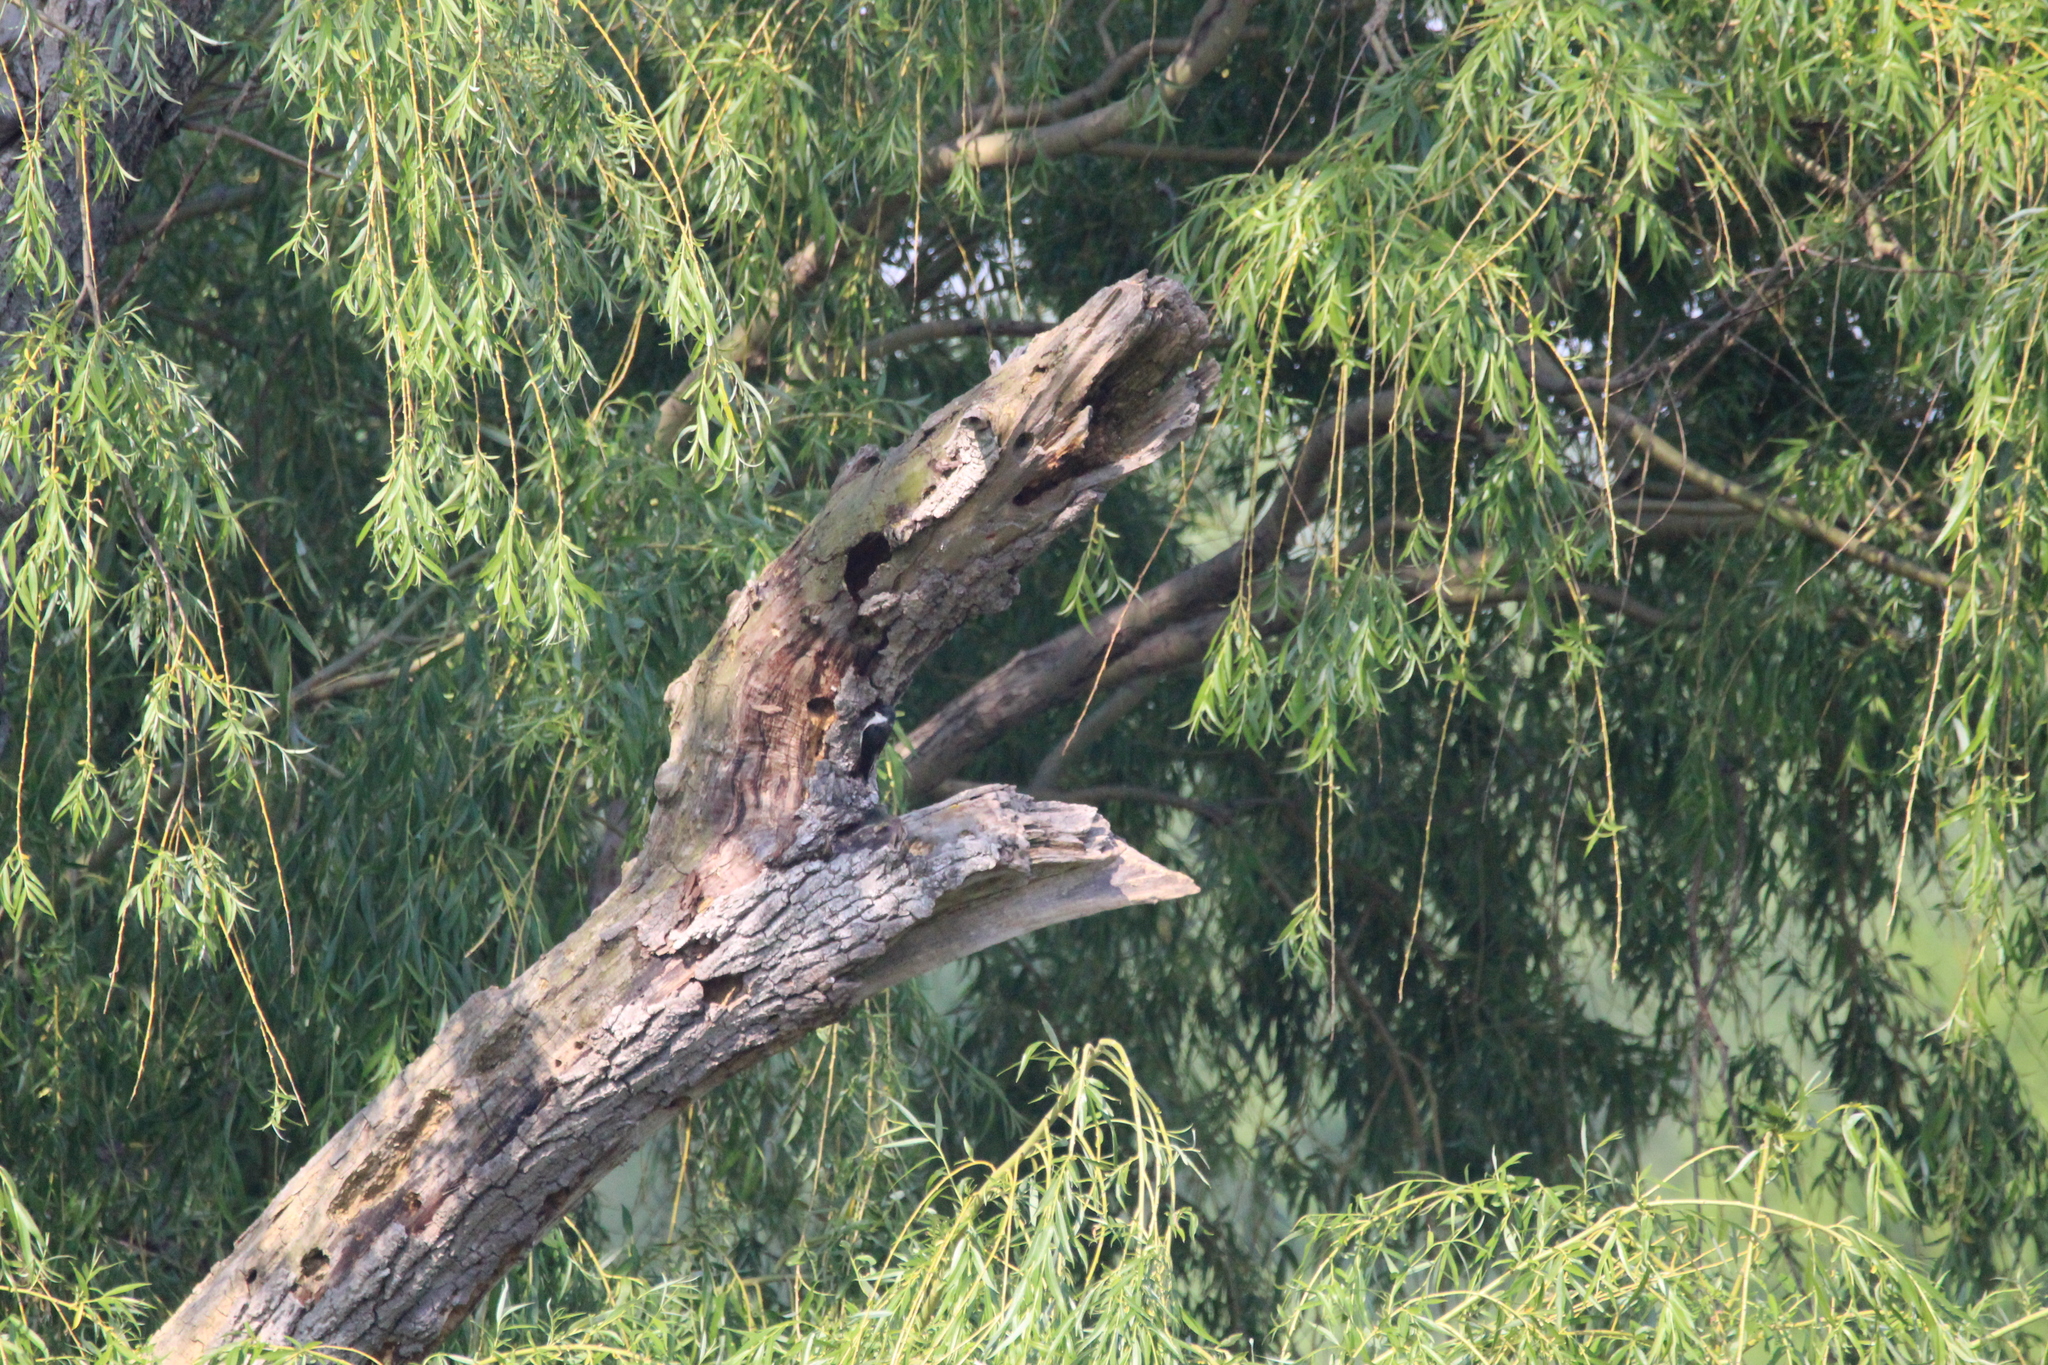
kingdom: Animalia
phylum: Chordata
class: Aves
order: Passeriformes
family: Hirundinidae
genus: Tachycineta
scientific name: Tachycineta bicolor
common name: Tree swallow
